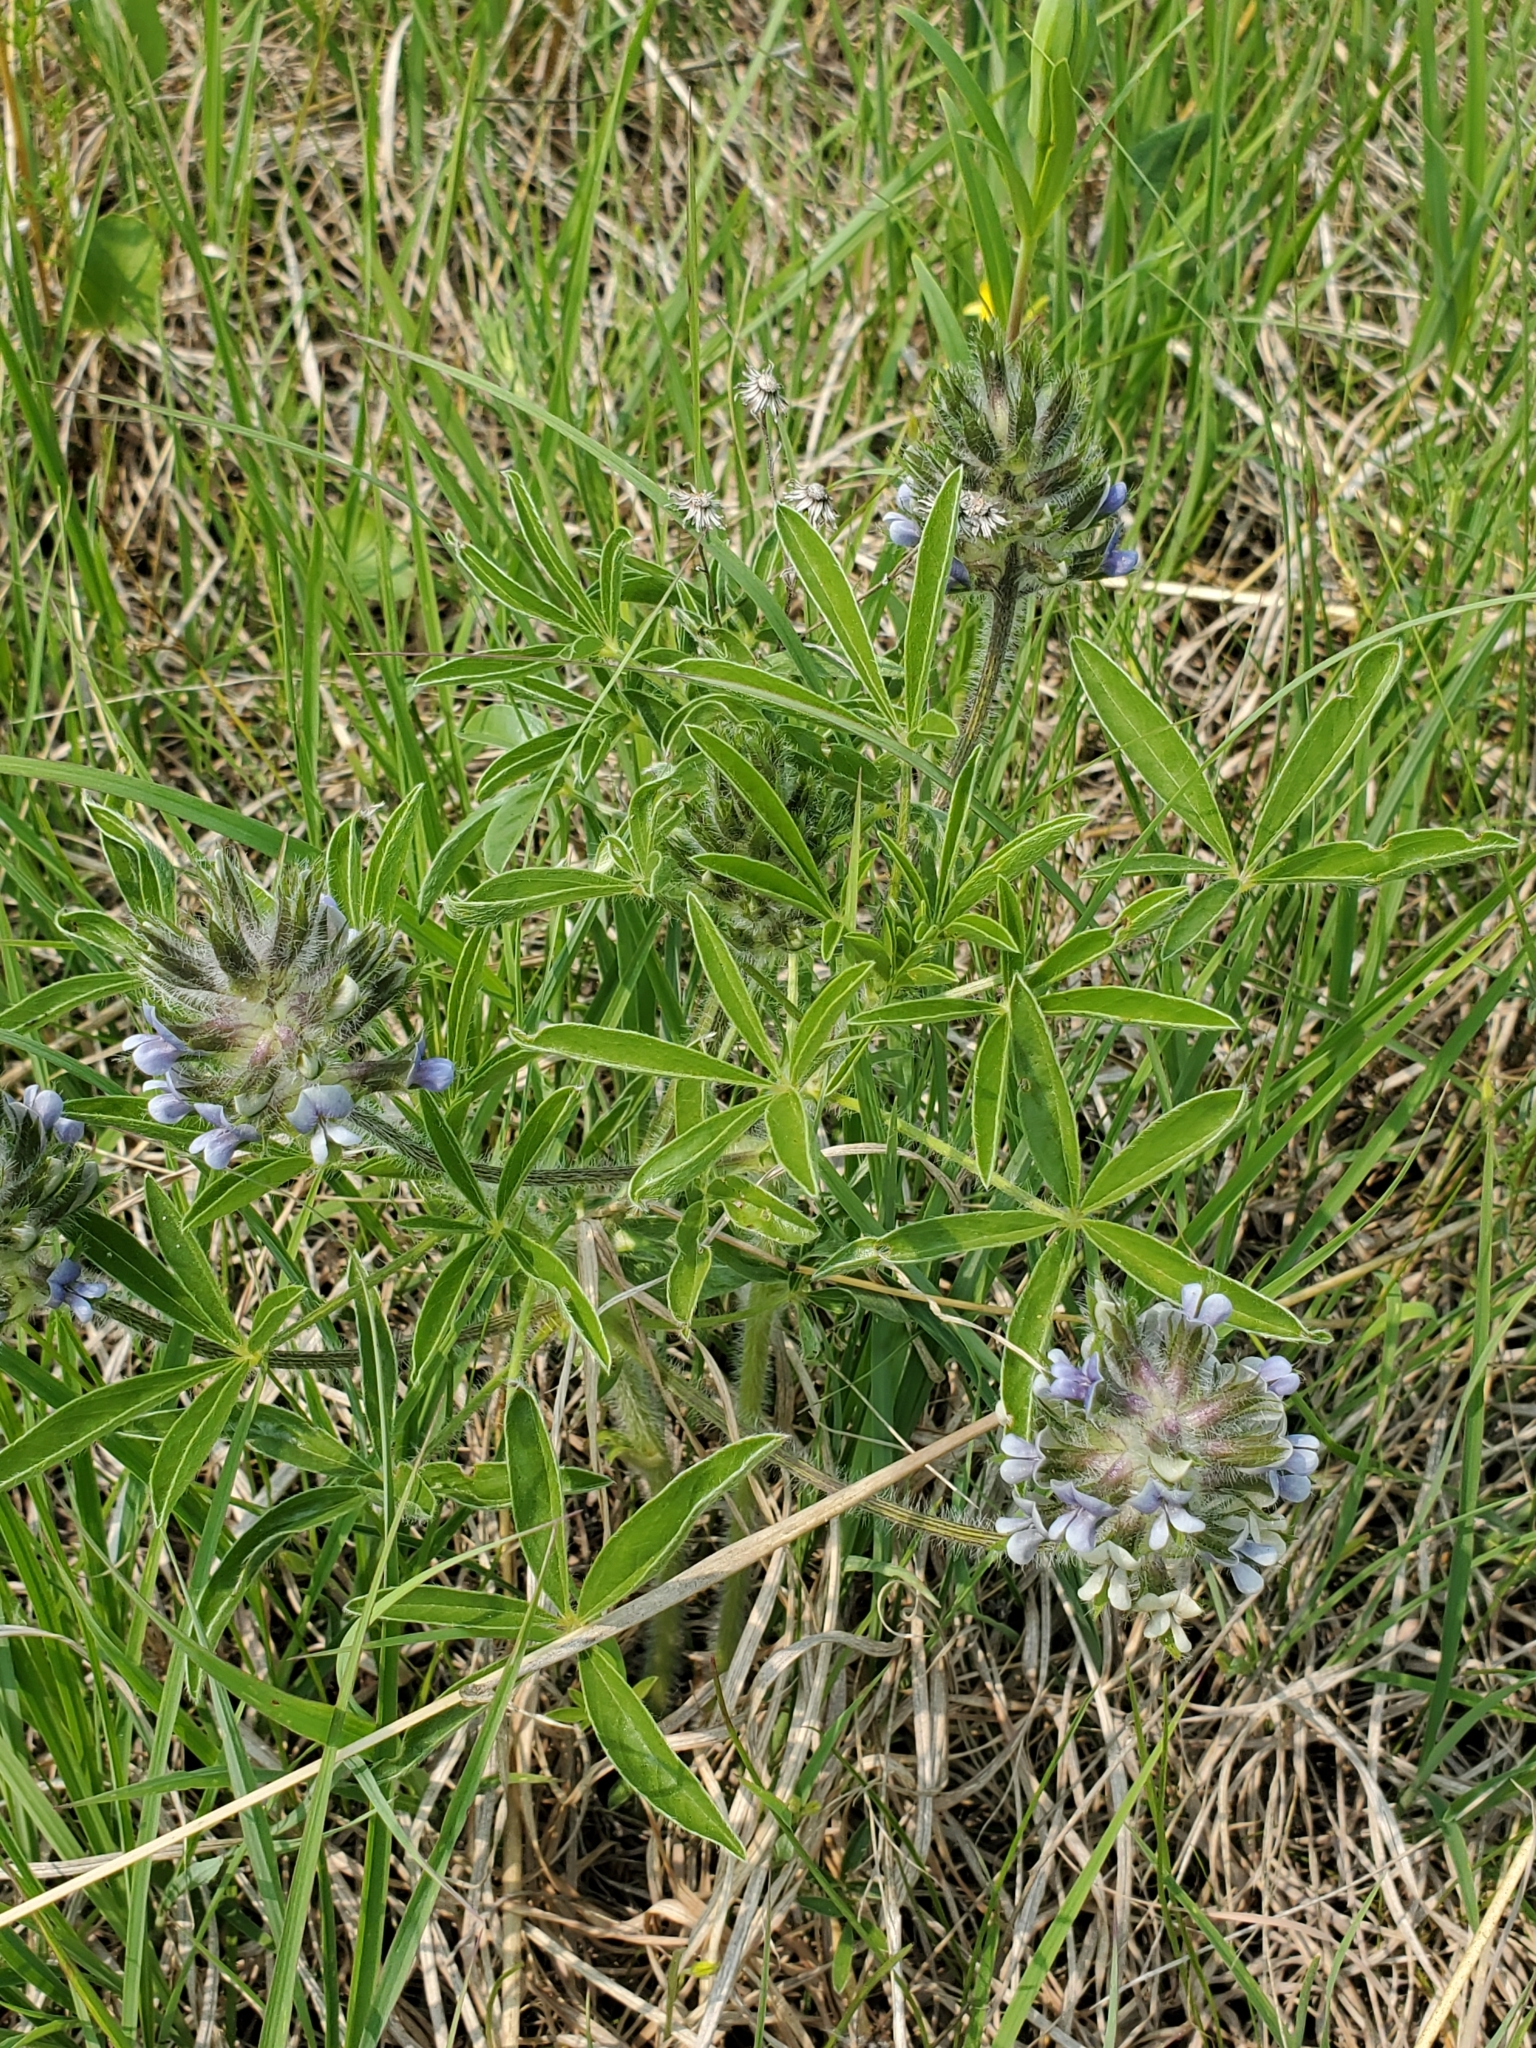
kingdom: Plantae
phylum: Tracheophyta
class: Magnoliopsida
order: Fabales
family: Fabaceae
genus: Pediomelum
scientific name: Pediomelum esculentum
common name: Indian-turnip
